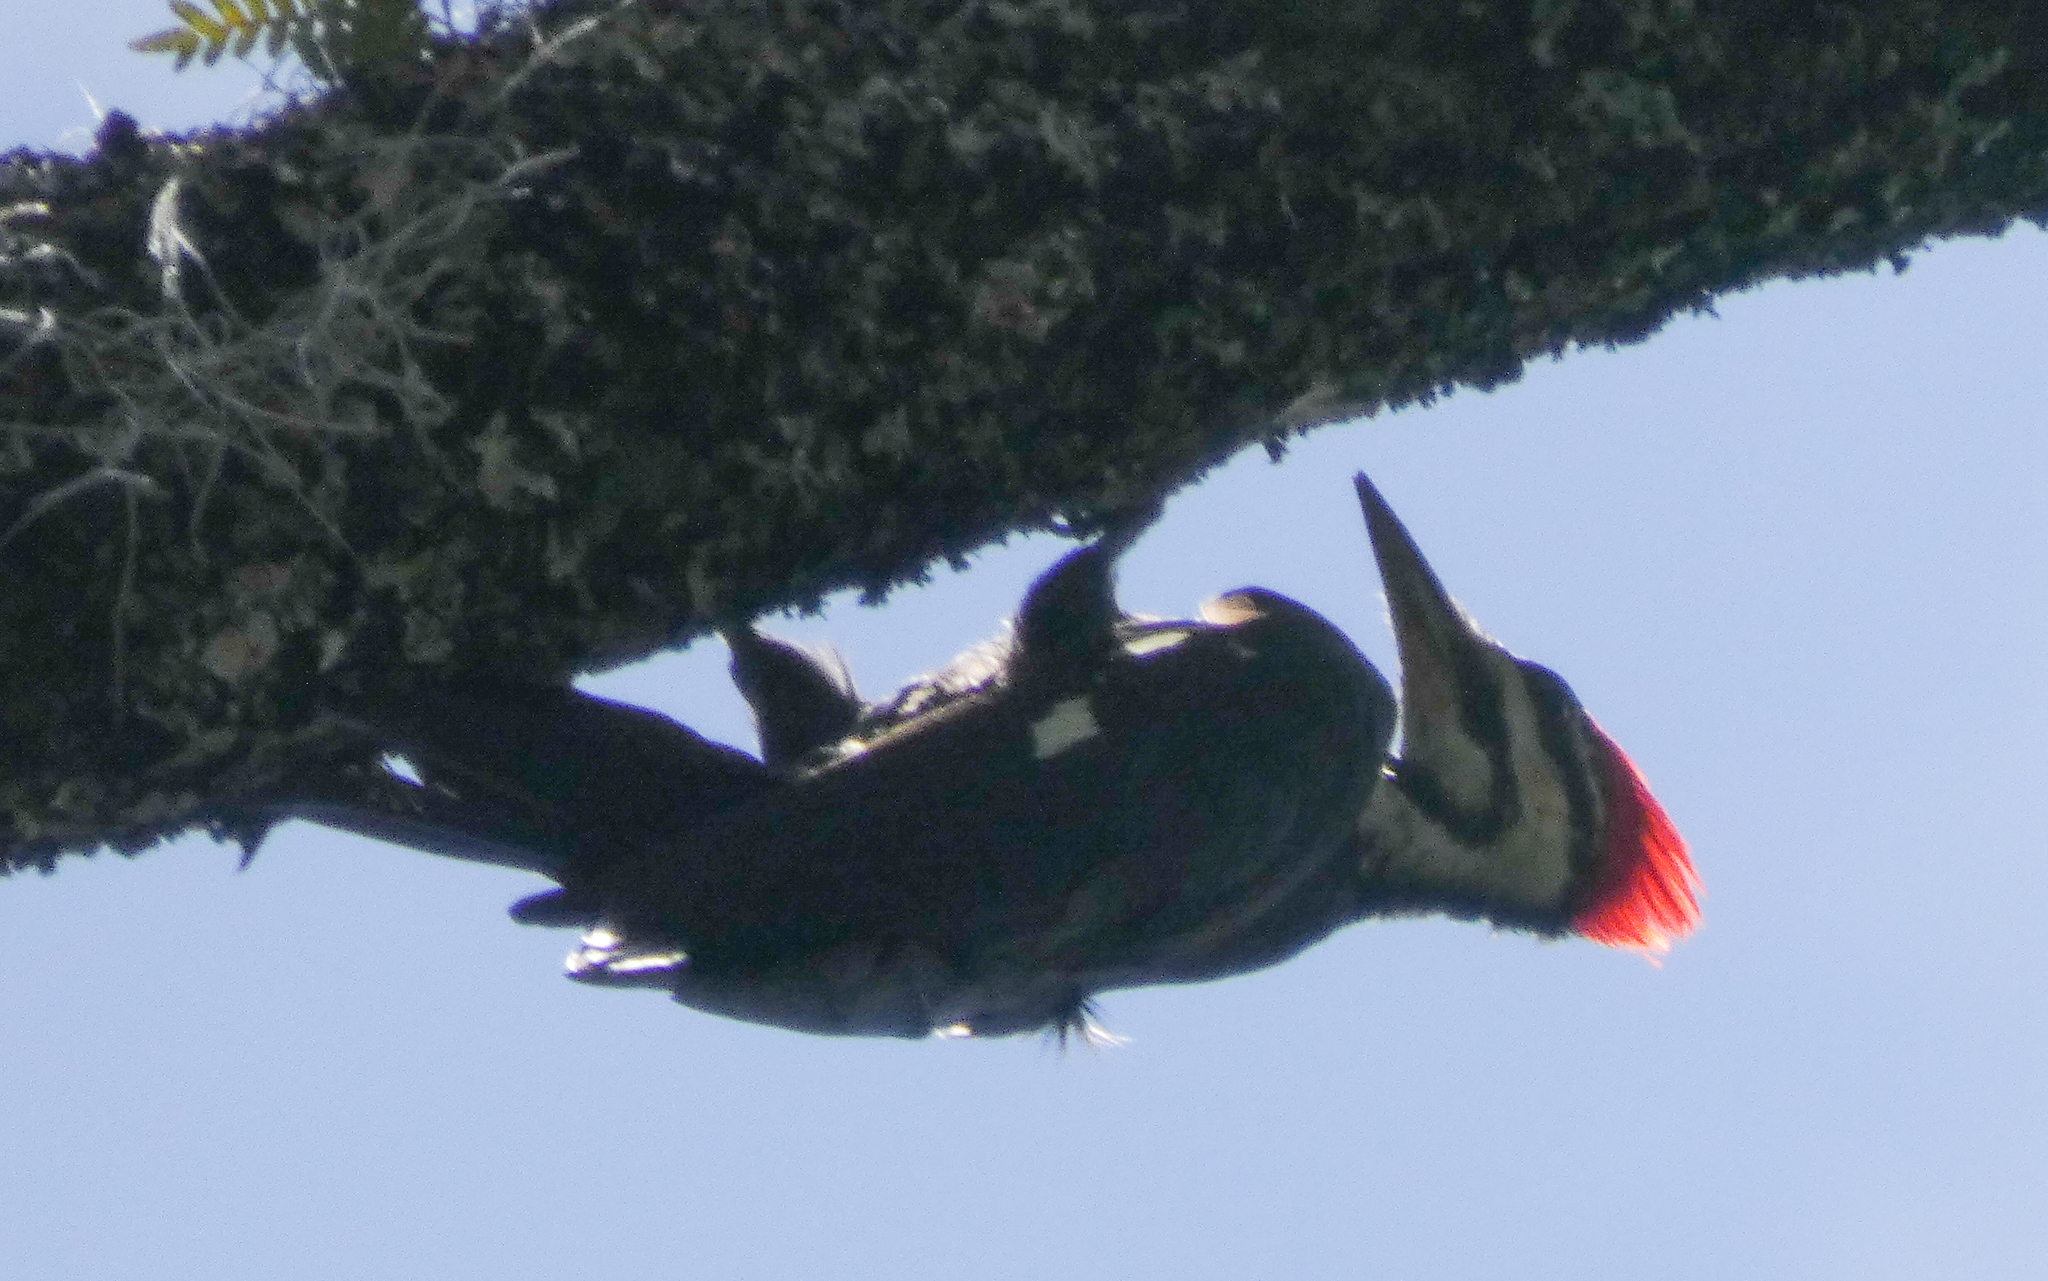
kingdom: Animalia
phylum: Chordata
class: Aves
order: Piciformes
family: Picidae
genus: Dryocopus
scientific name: Dryocopus pileatus
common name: Pileated woodpecker
